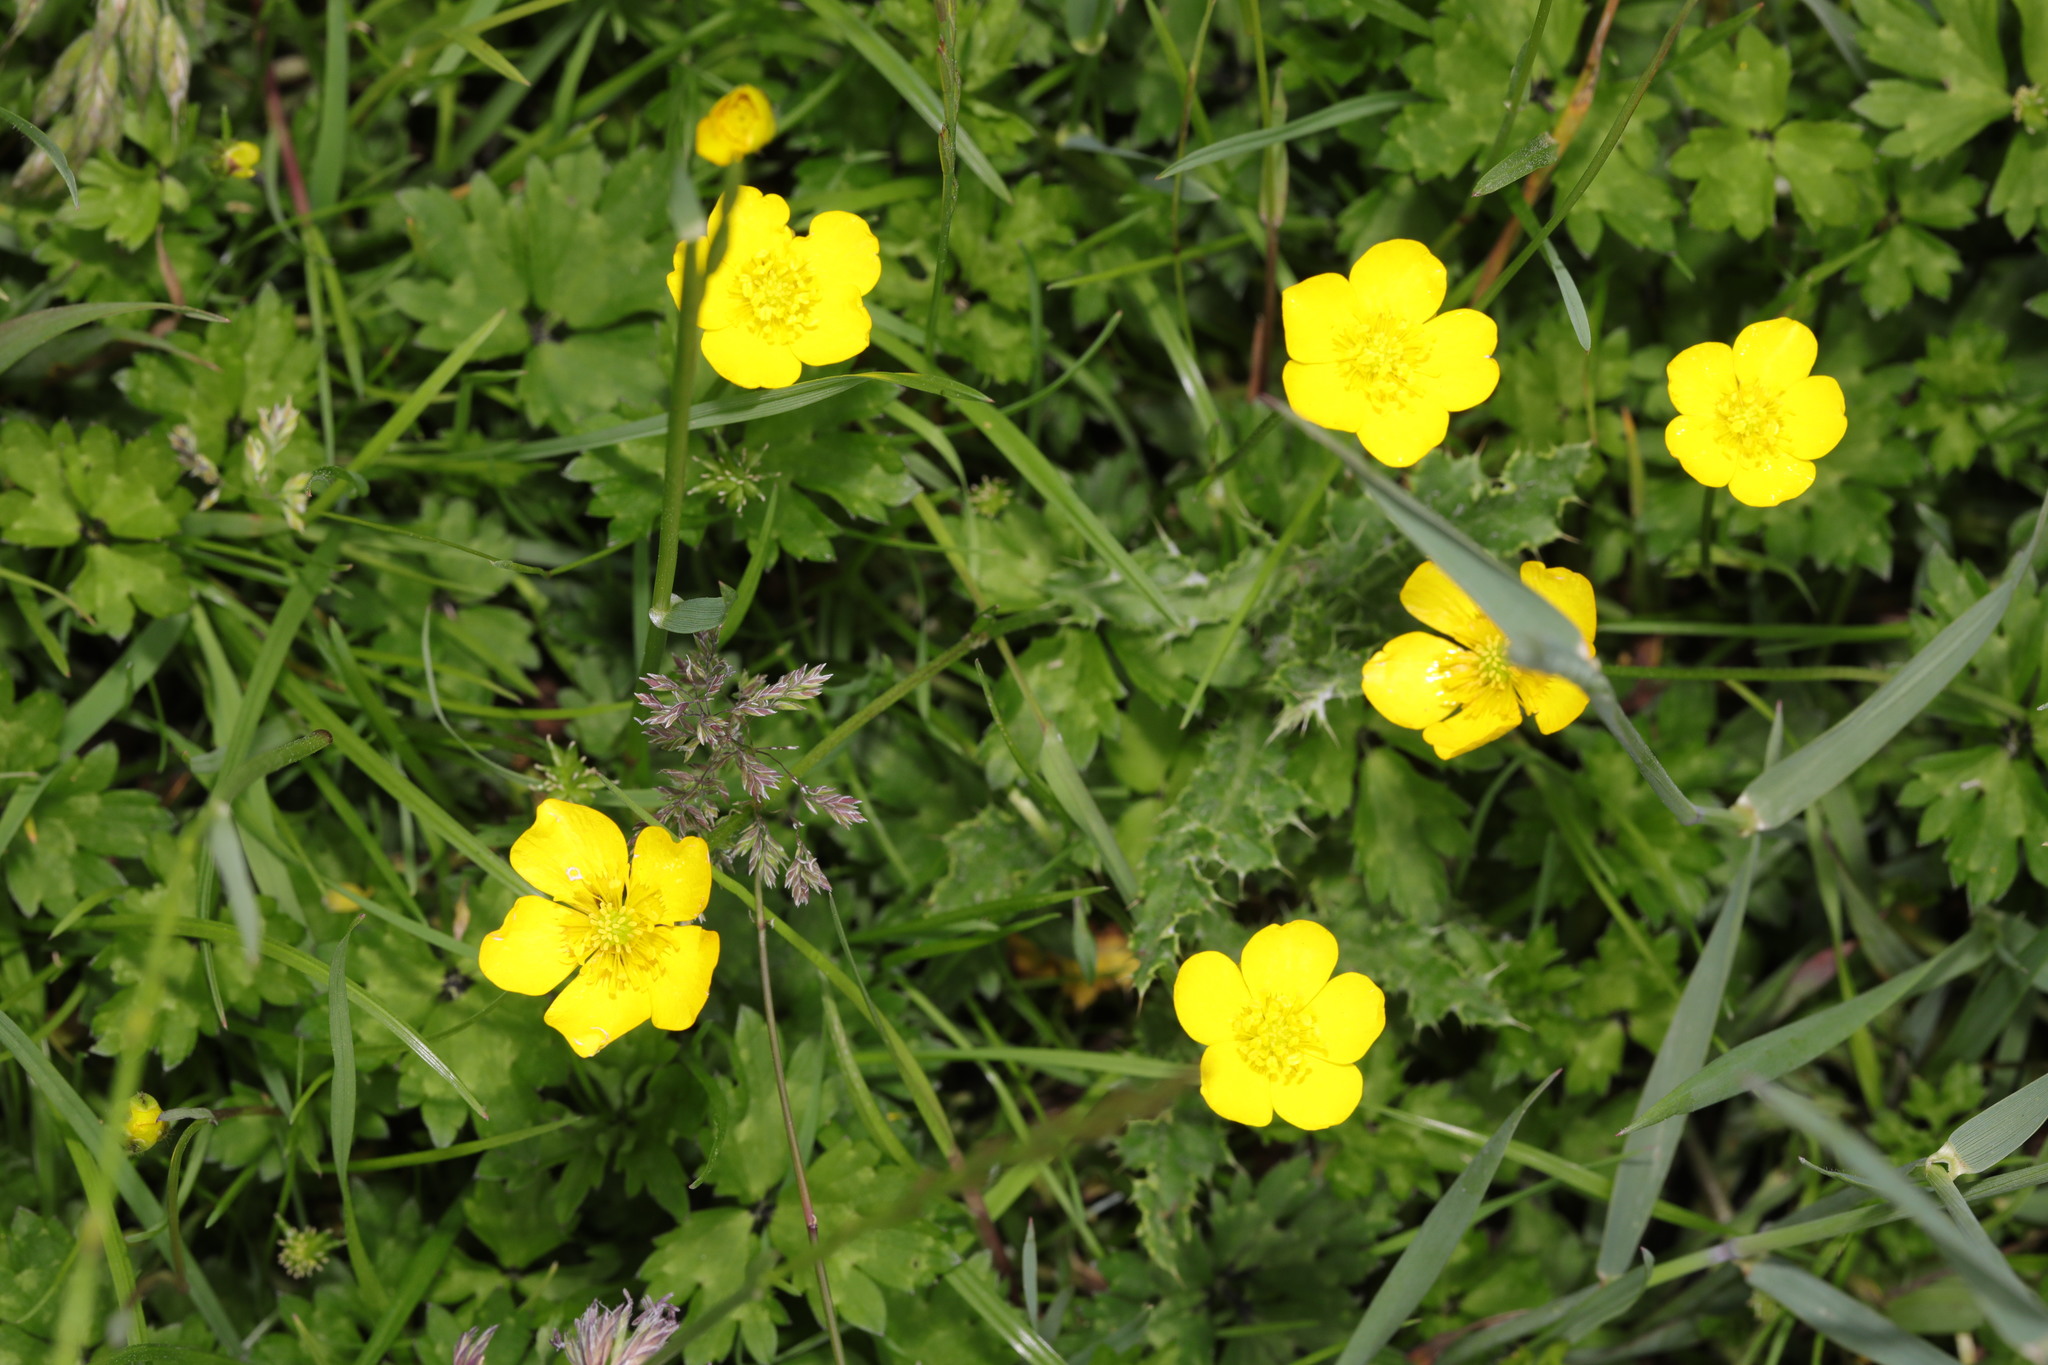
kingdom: Plantae
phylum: Tracheophyta
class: Magnoliopsida
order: Ranunculales
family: Ranunculaceae
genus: Ranunculus
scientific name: Ranunculus repens
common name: Creeping buttercup
